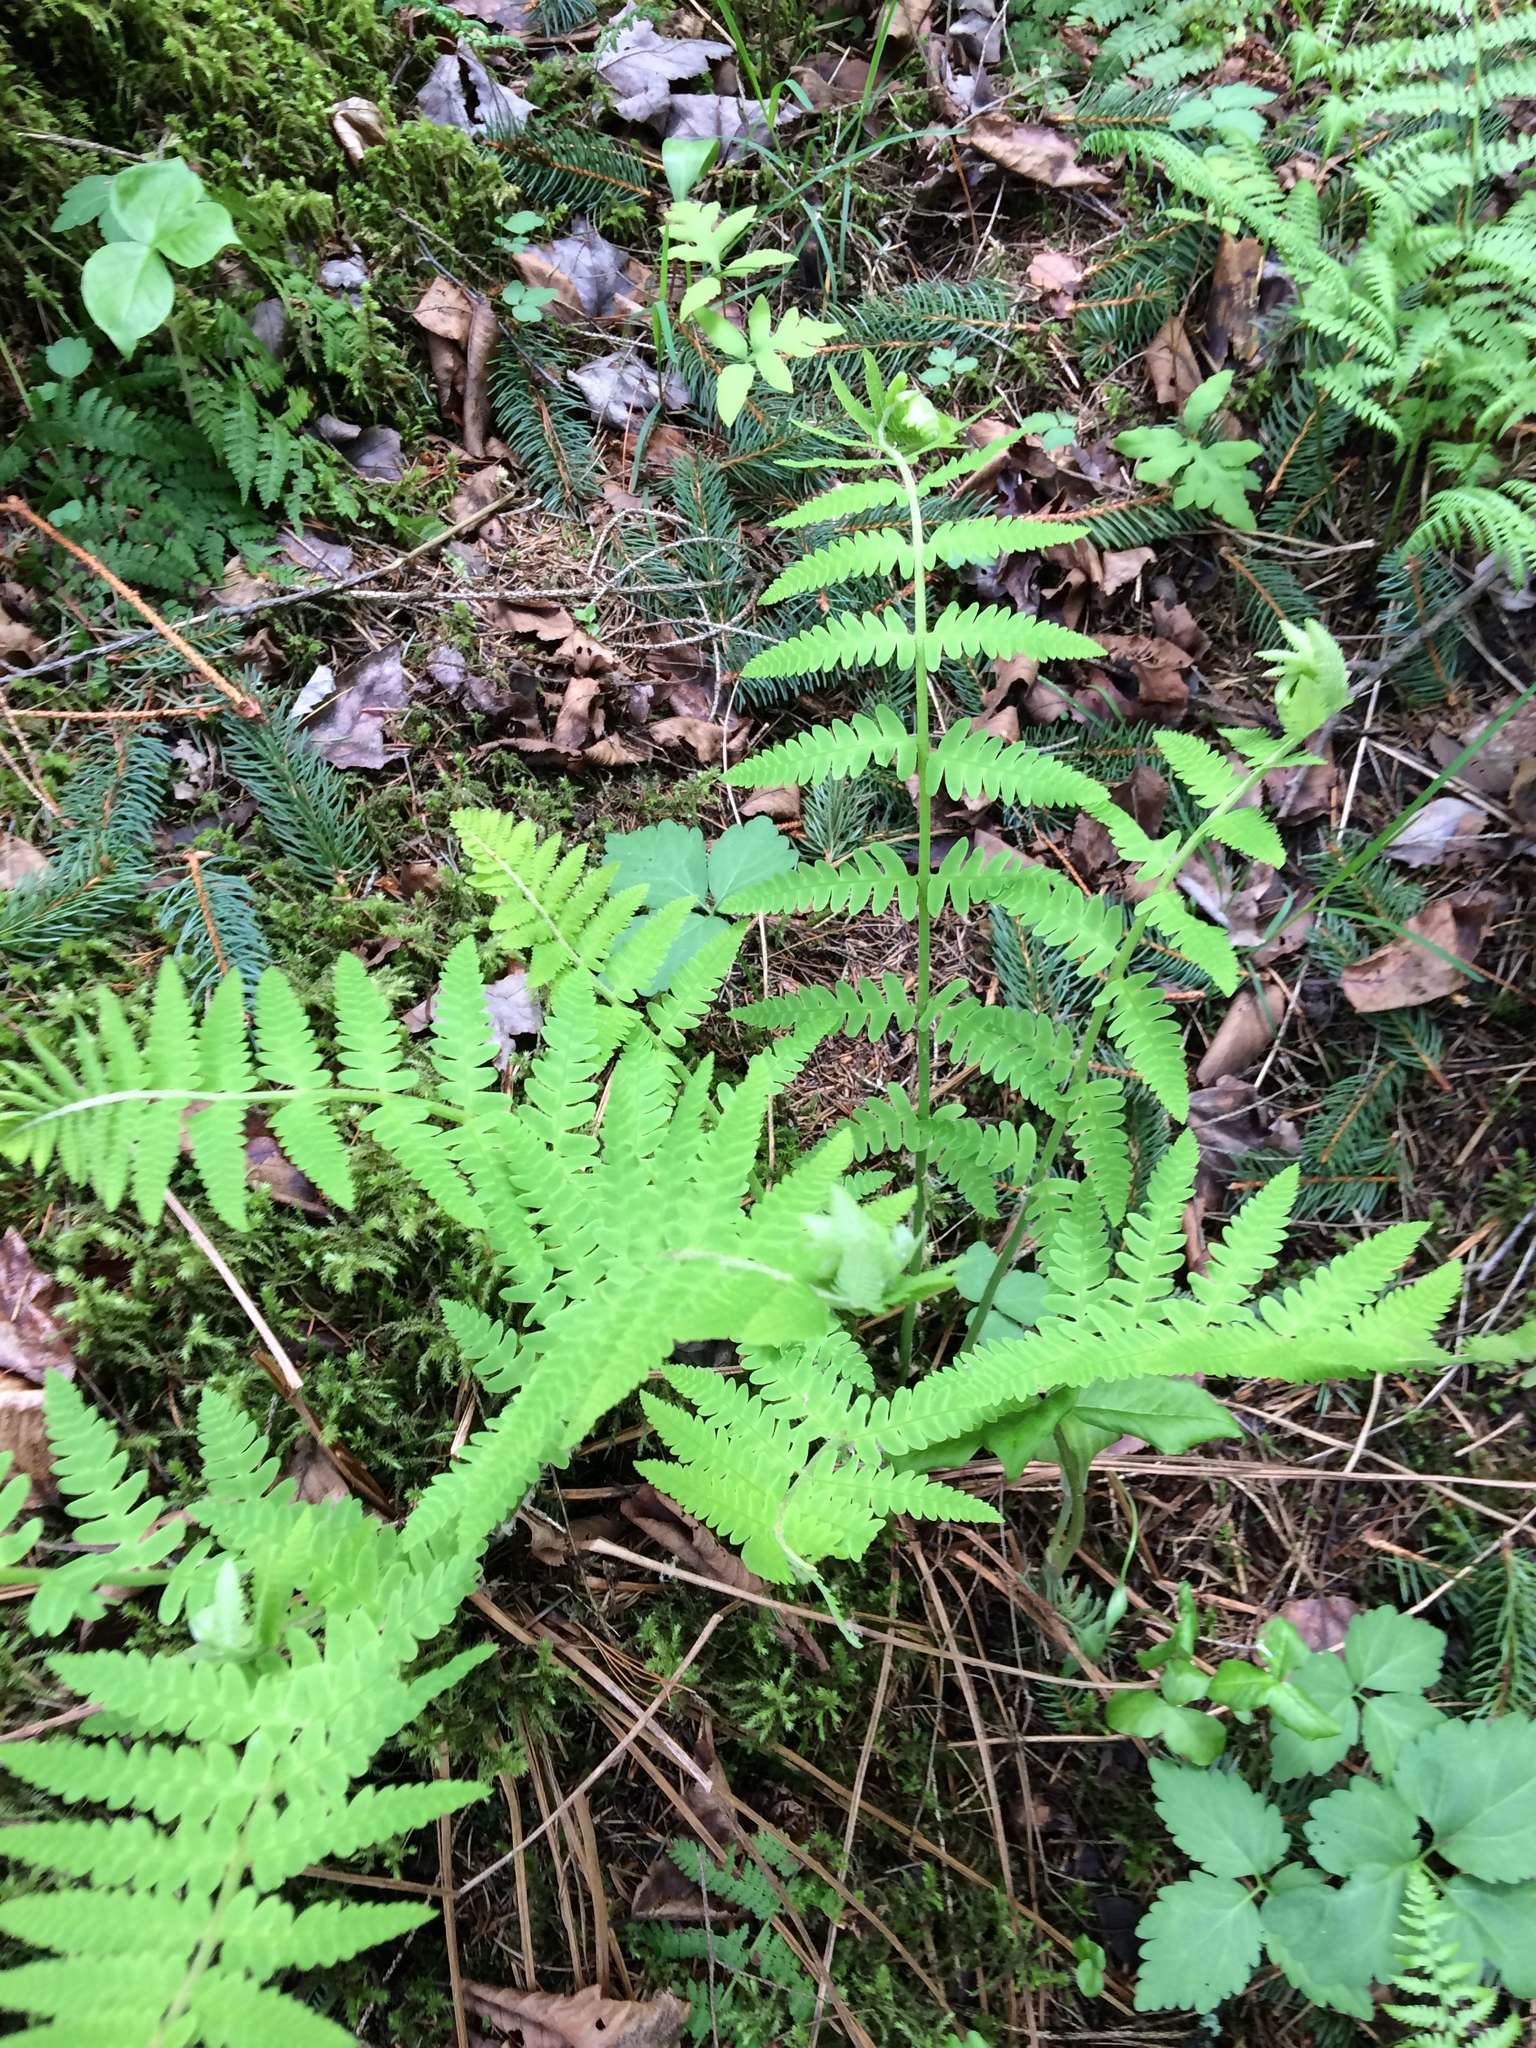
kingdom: Plantae
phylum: Tracheophyta
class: Polypodiopsida
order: Osmundales
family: Osmundaceae
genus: Claytosmunda
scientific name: Claytosmunda claytoniana
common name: Clayton's fern
